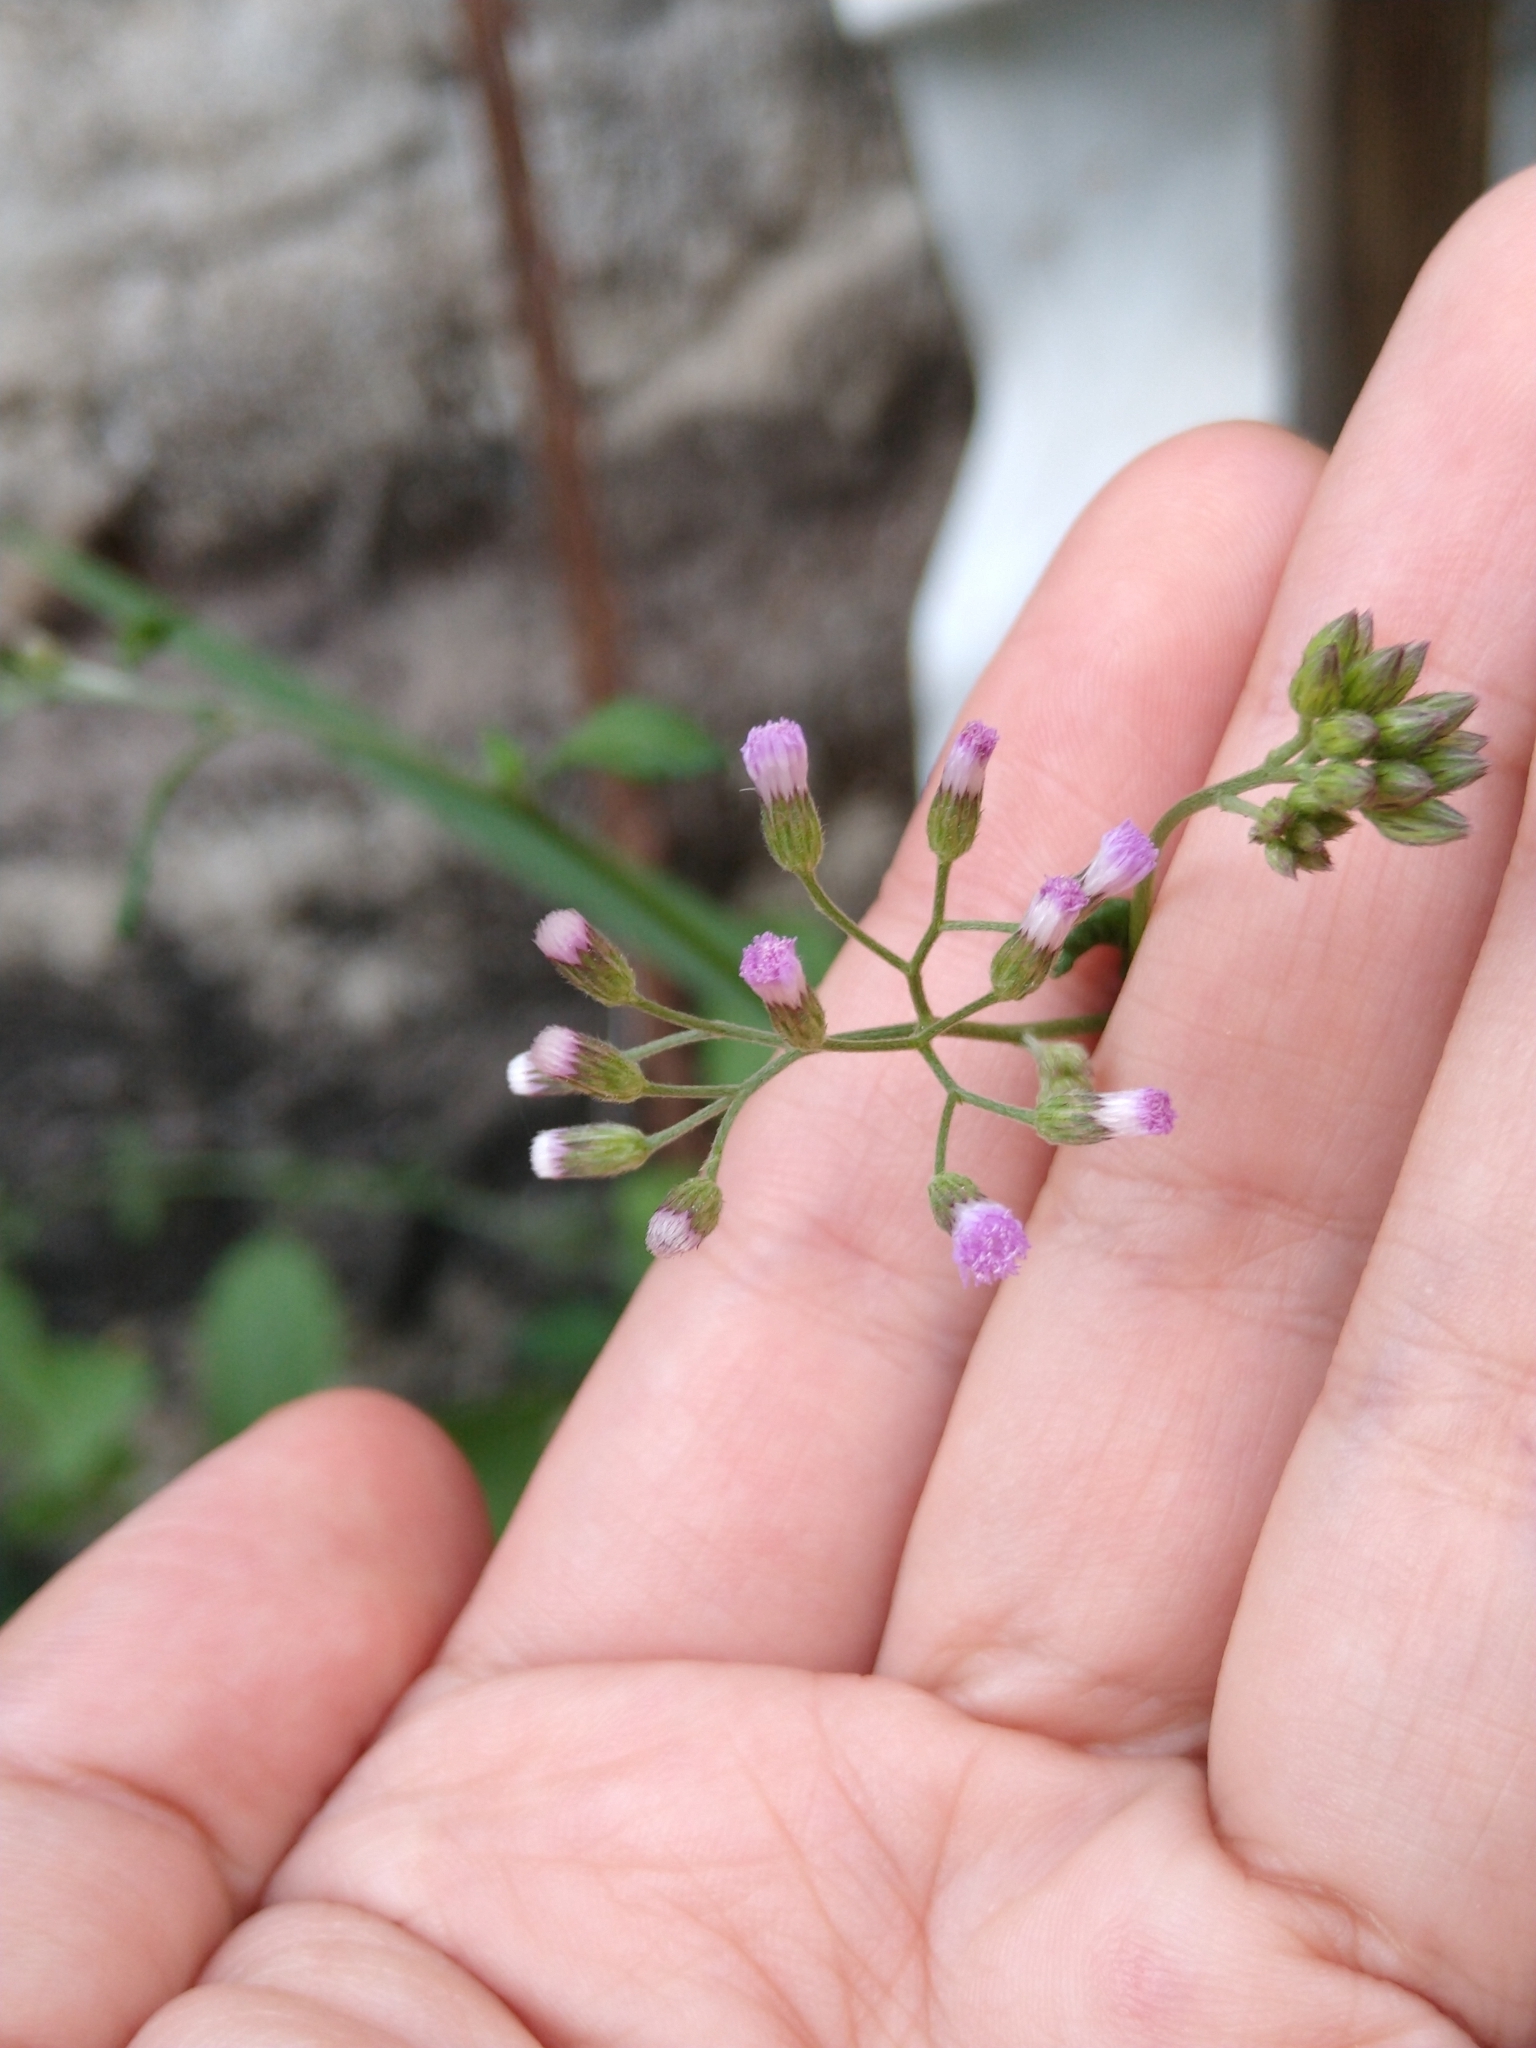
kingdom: Plantae
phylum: Tracheophyta
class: Magnoliopsida
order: Asterales
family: Asteraceae
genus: Cyanthillium
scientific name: Cyanthillium cinereum
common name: Little ironweed
